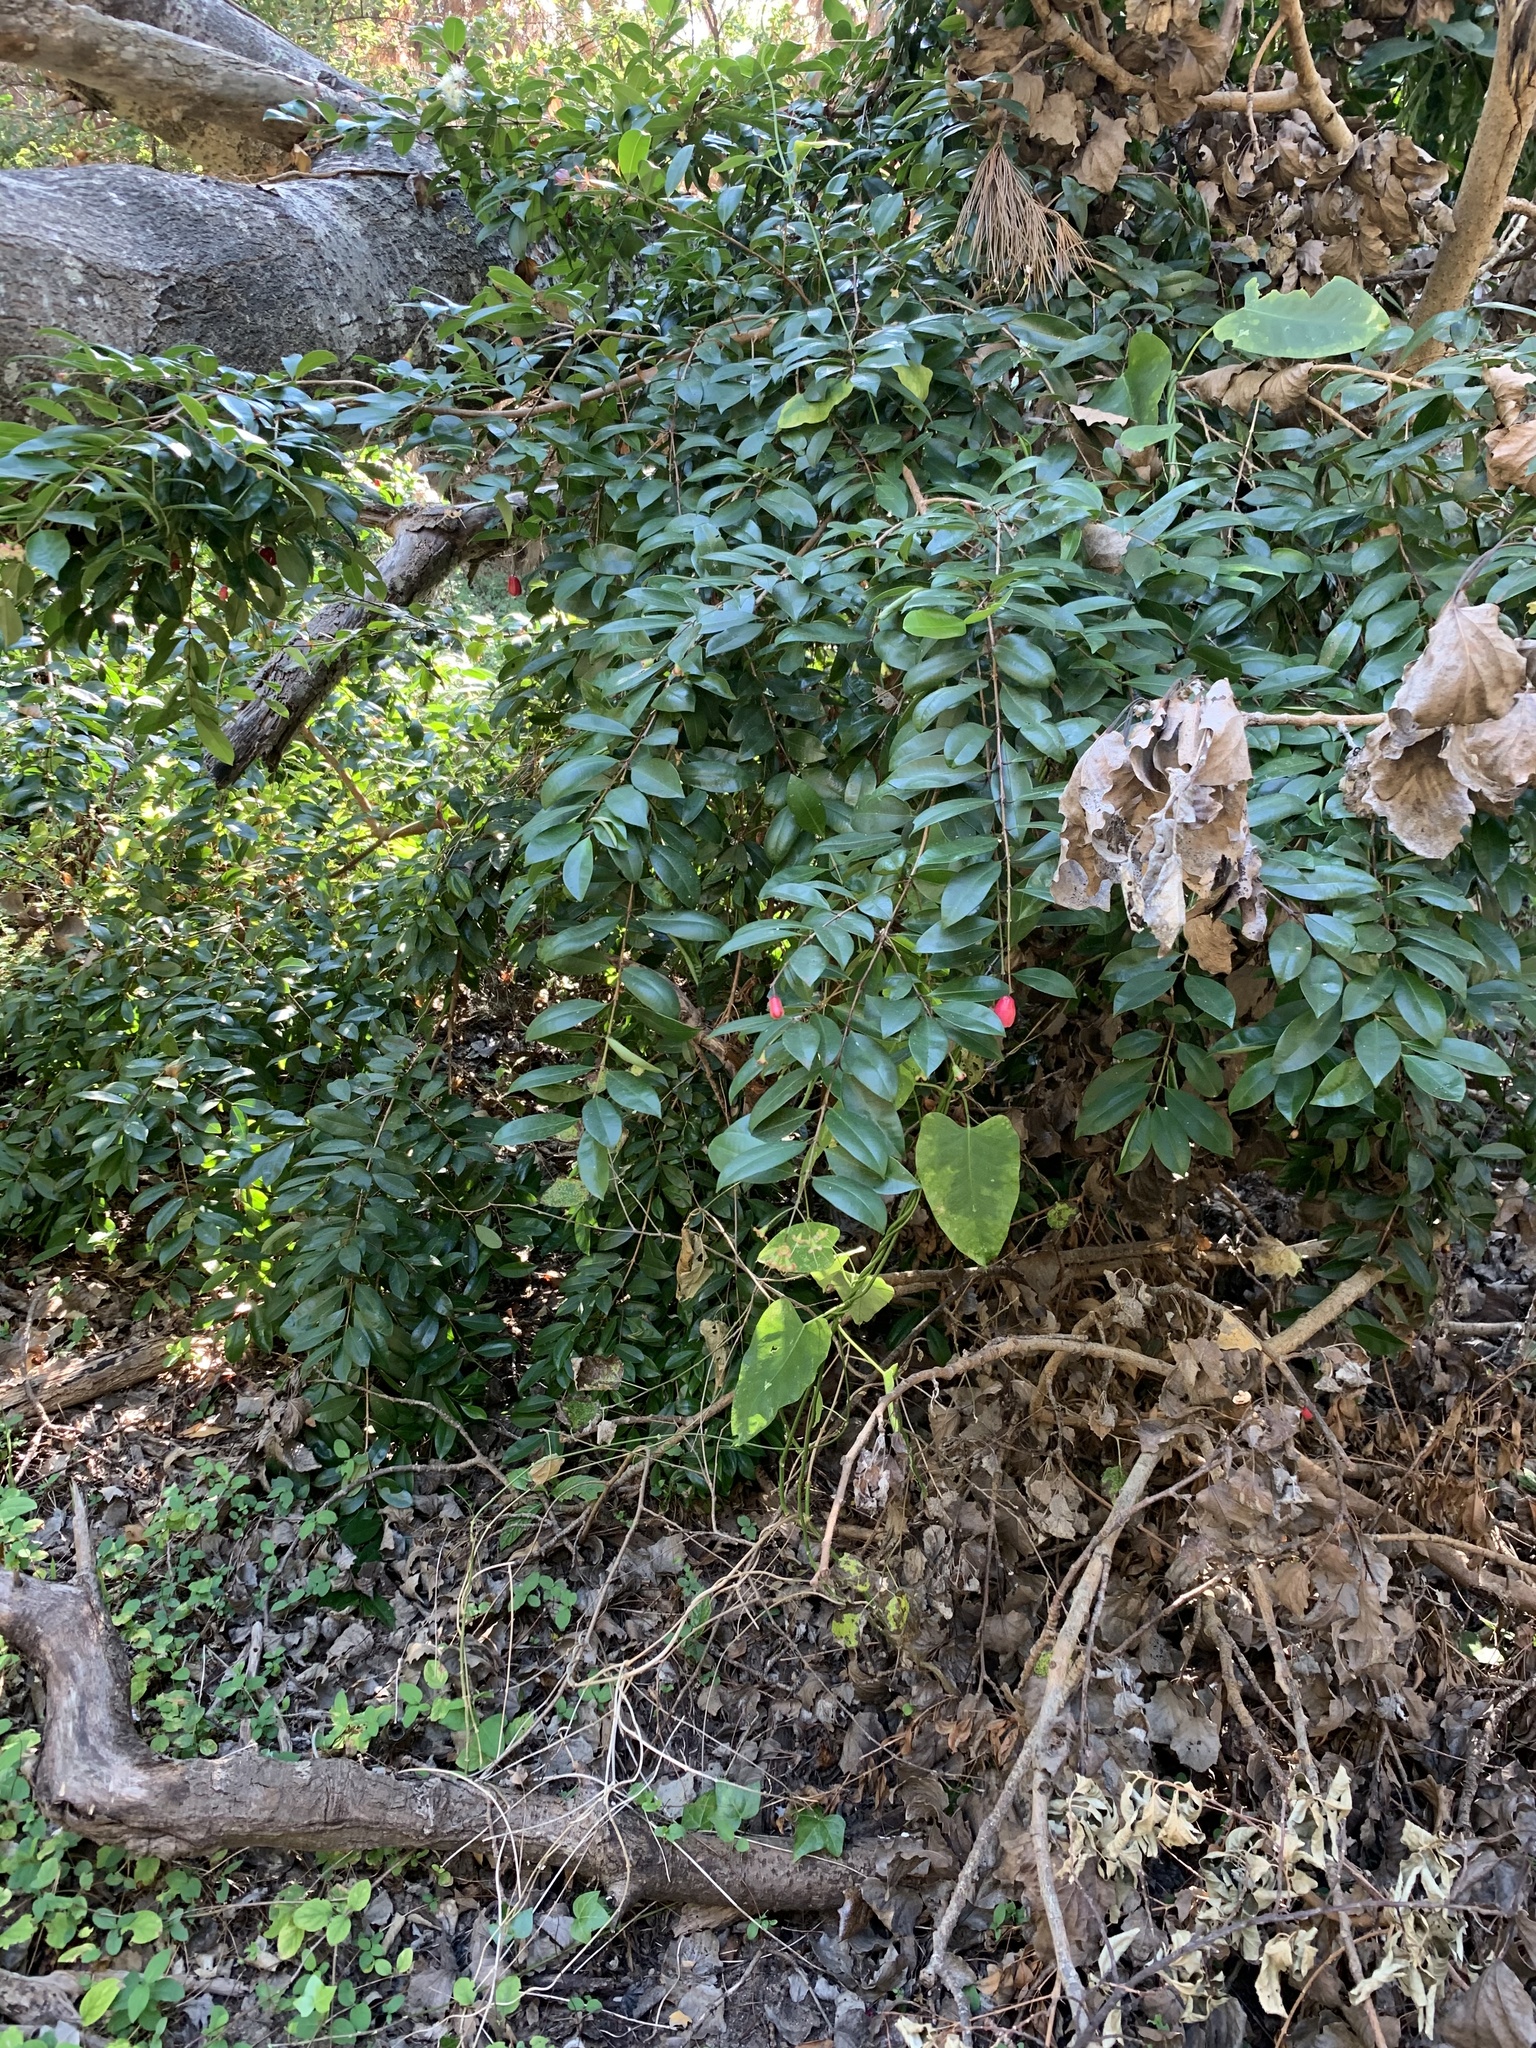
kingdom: Plantae
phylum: Tracheophyta
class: Magnoliopsida
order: Myrtales
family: Myrtaceae
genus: Syzygium
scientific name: Syzygium australe
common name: Australian brush-cherry
